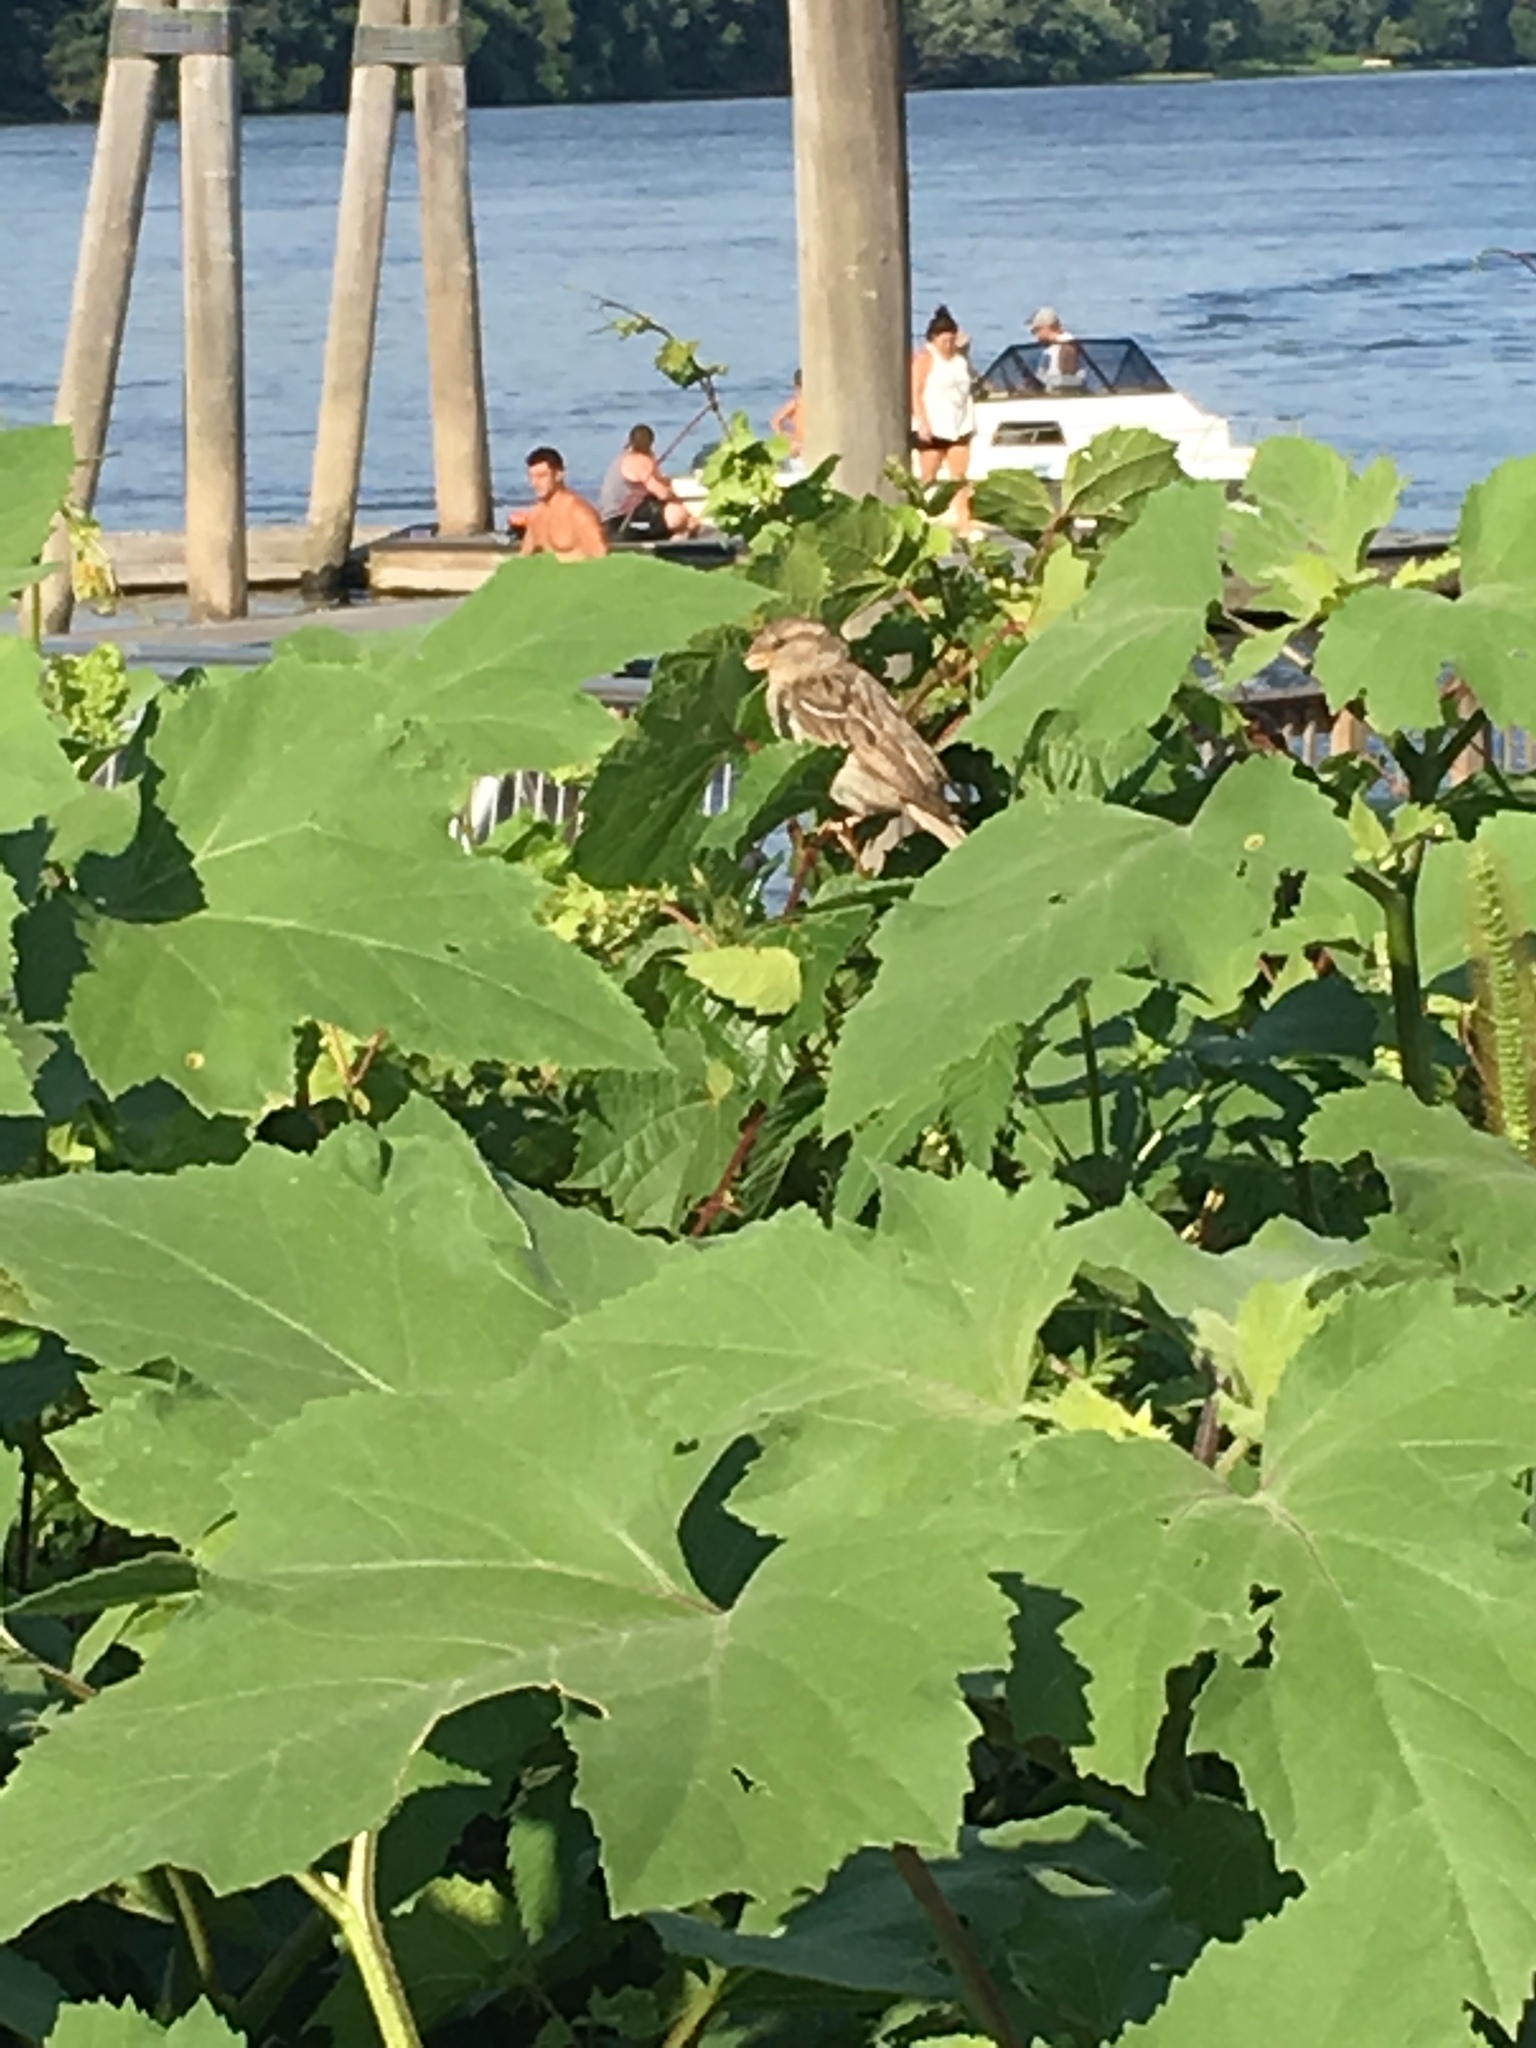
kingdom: Animalia
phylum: Chordata
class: Aves
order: Passeriformes
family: Passeridae
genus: Passer
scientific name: Passer domesticus
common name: House sparrow
